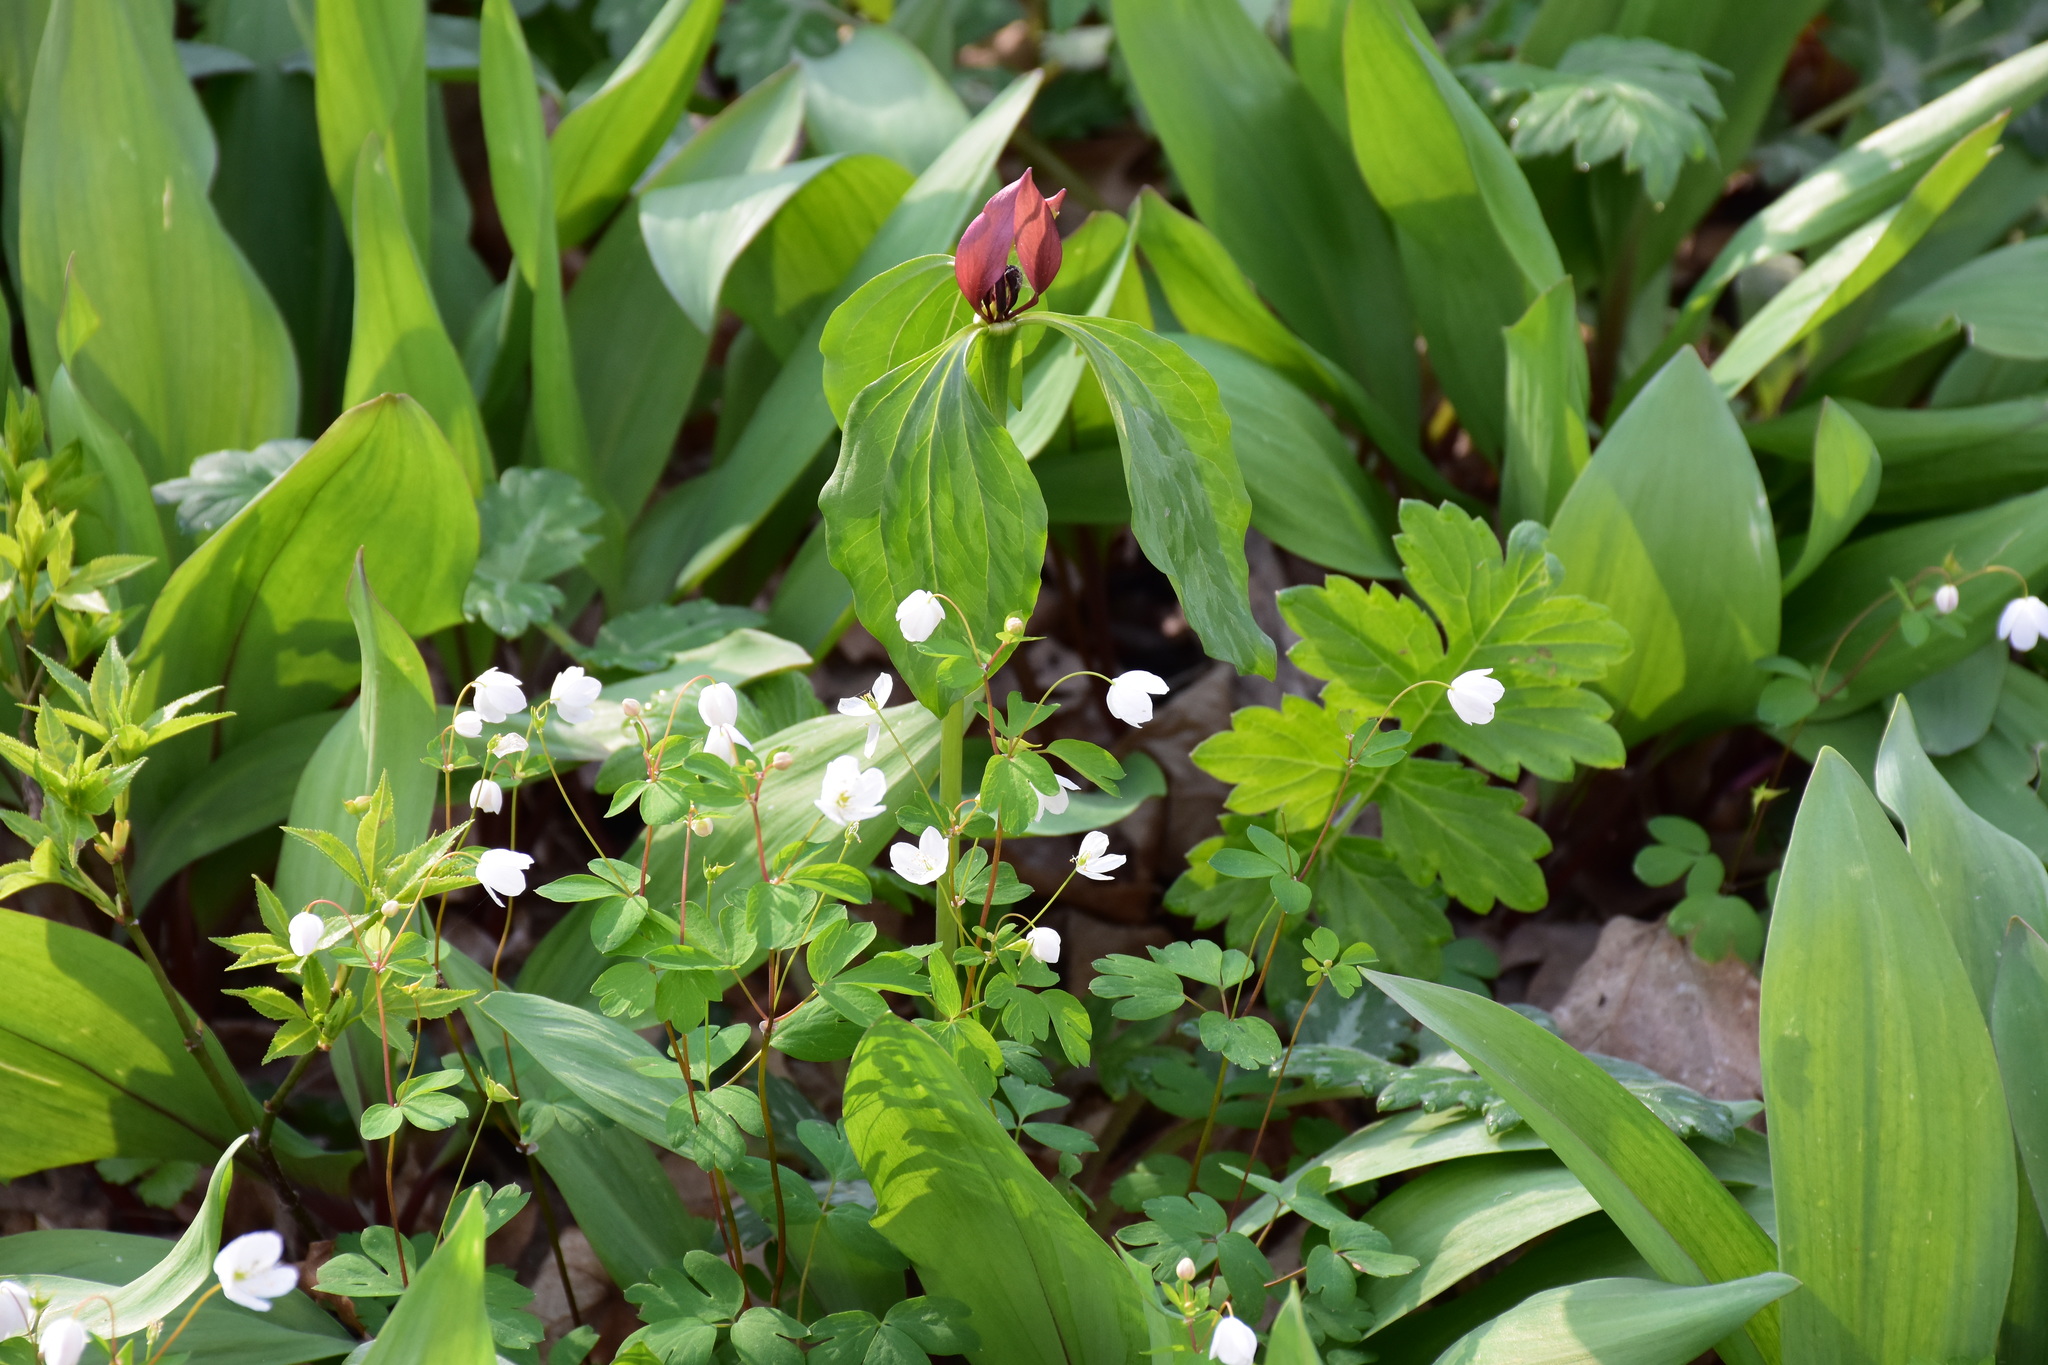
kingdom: Plantae
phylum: Tracheophyta
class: Liliopsida
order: Liliales
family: Melanthiaceae
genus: Trillium
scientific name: Trillium recurvatum
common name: Bloody butcher
